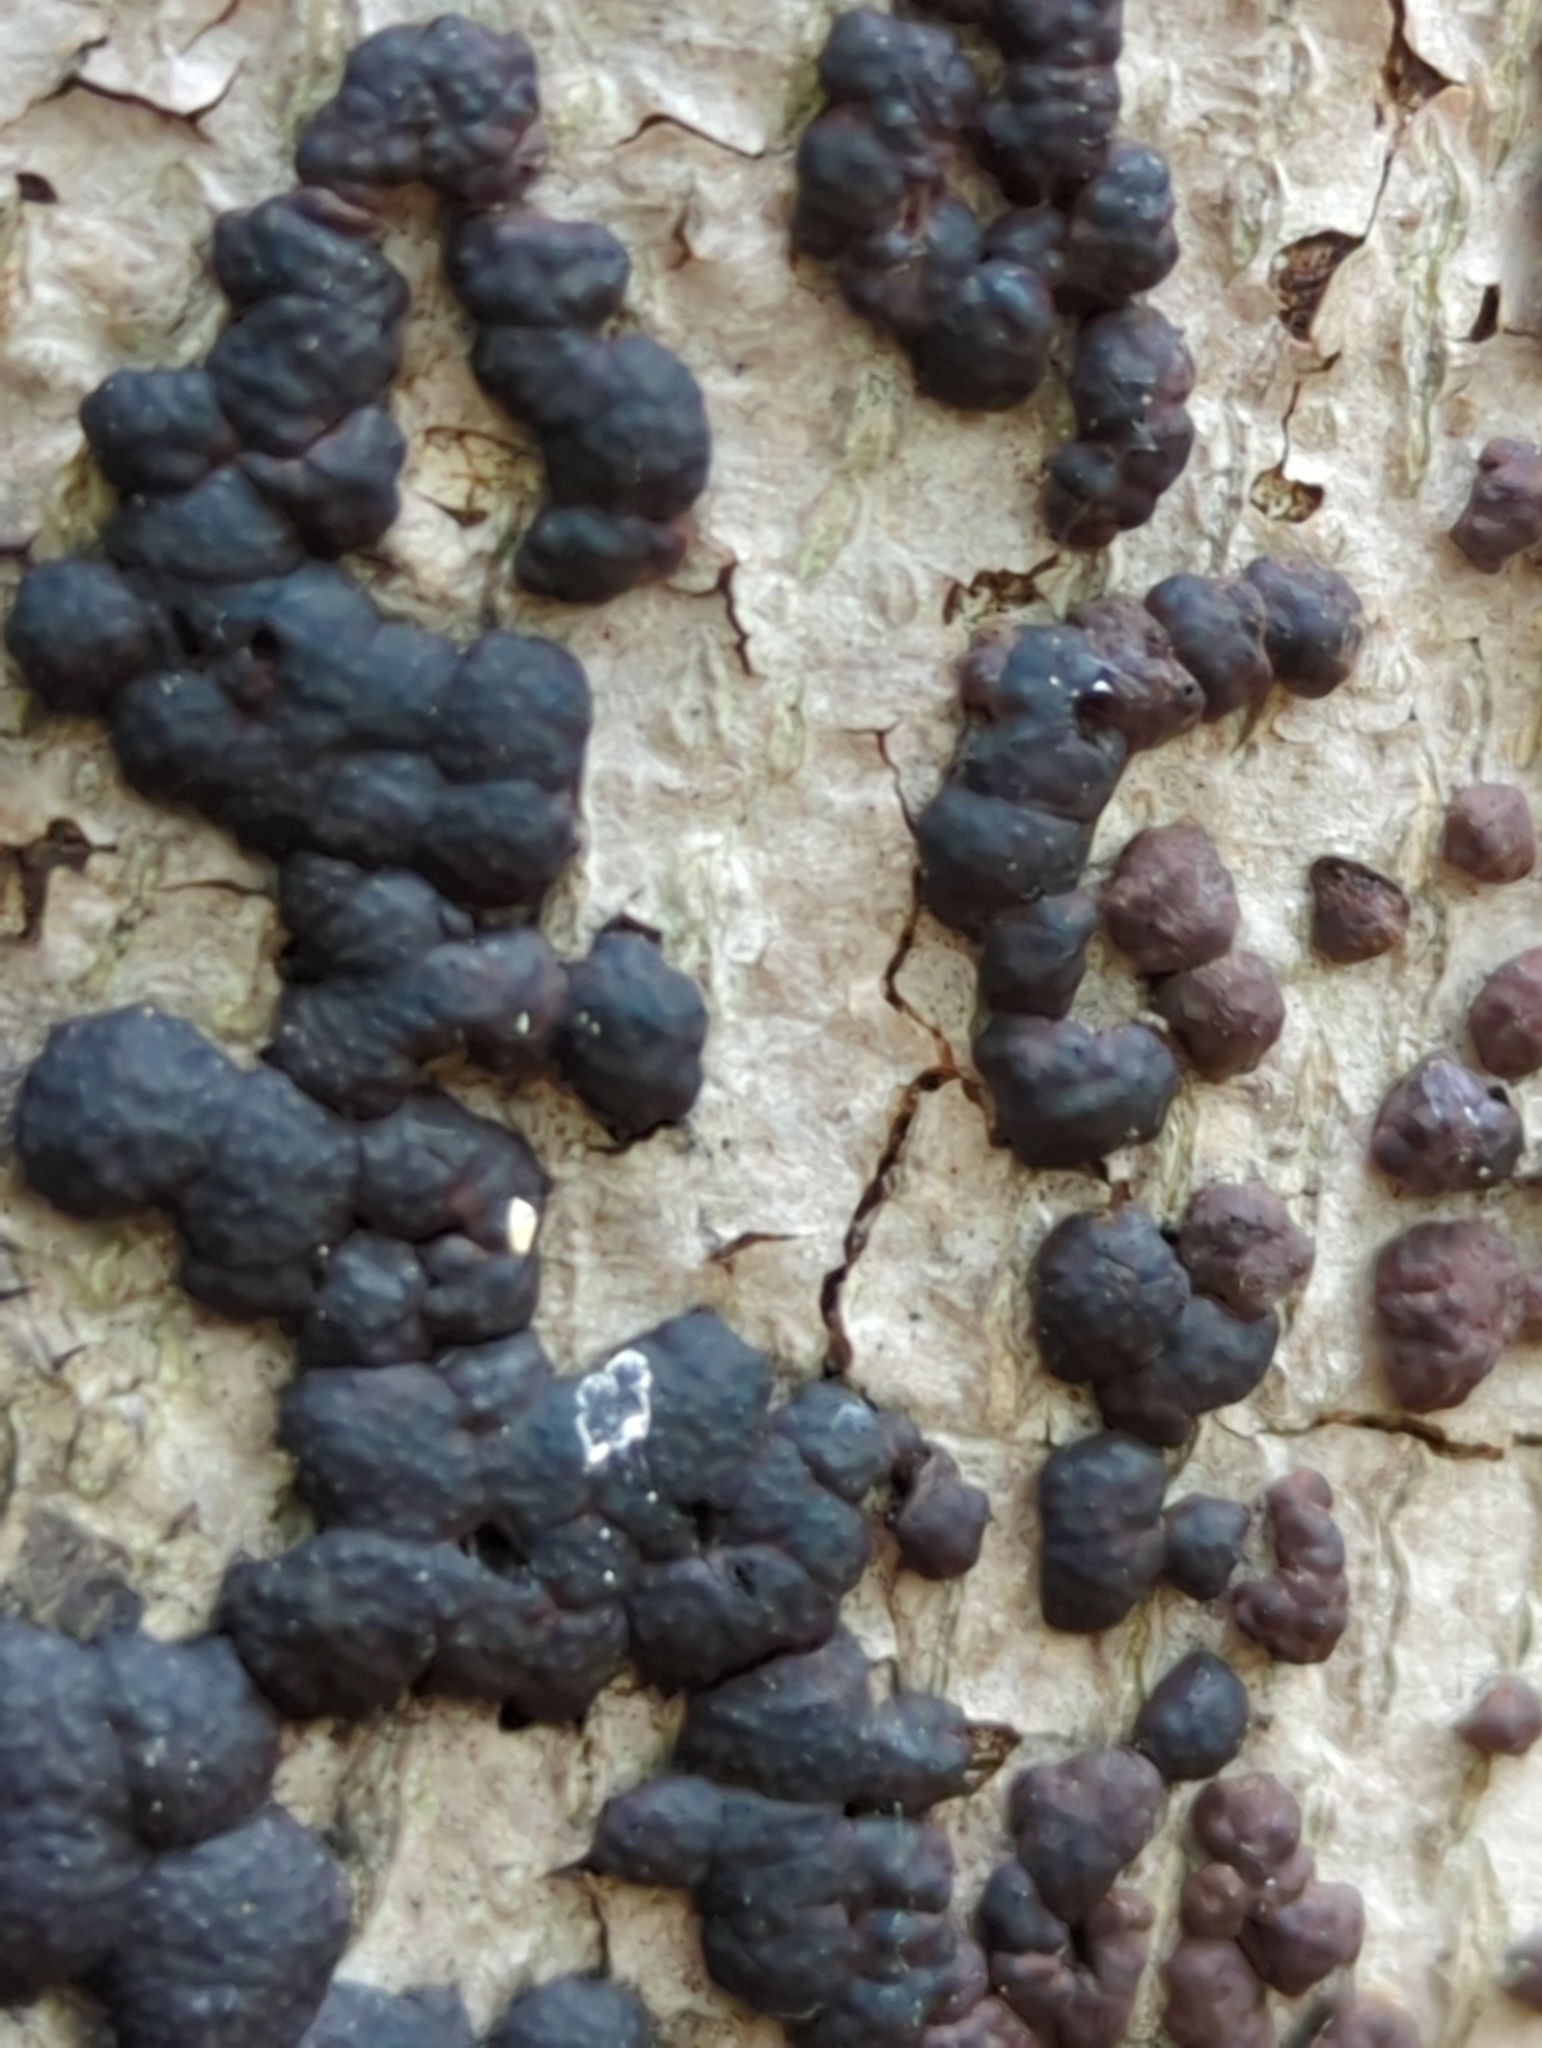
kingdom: Fungi
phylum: Ascomycota
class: Sordariomycetes
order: Xylariales
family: Hypoxylaceae
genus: Jackrogersella
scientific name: Jackrogersella cohaerens
